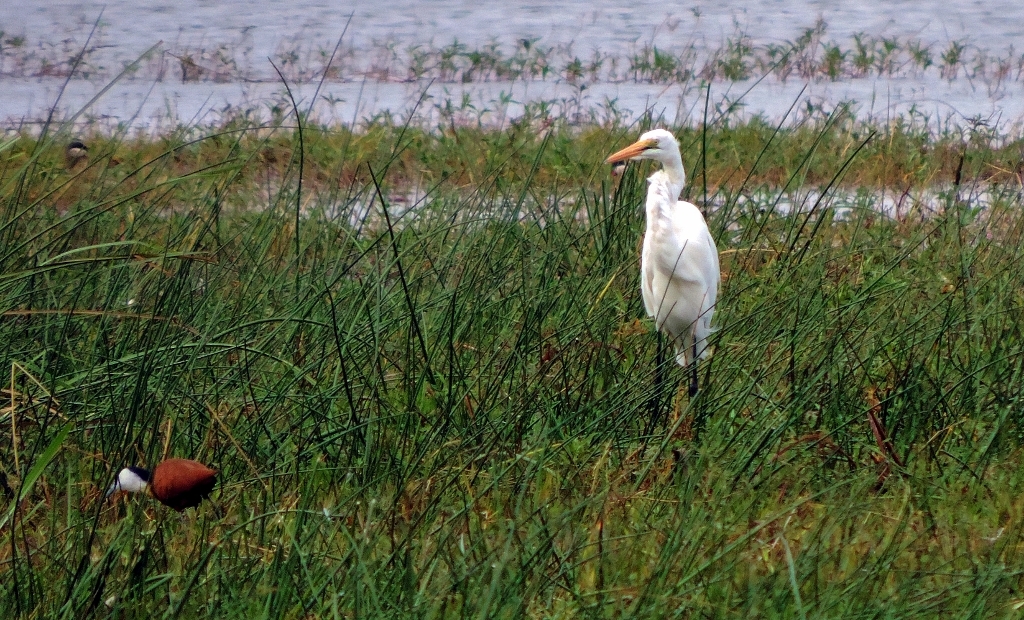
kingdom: Animalia
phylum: Chordata
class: Aves
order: Pelecaniformes
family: Ardeidae
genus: Ardea
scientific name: Ardea alba
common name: Great egret
